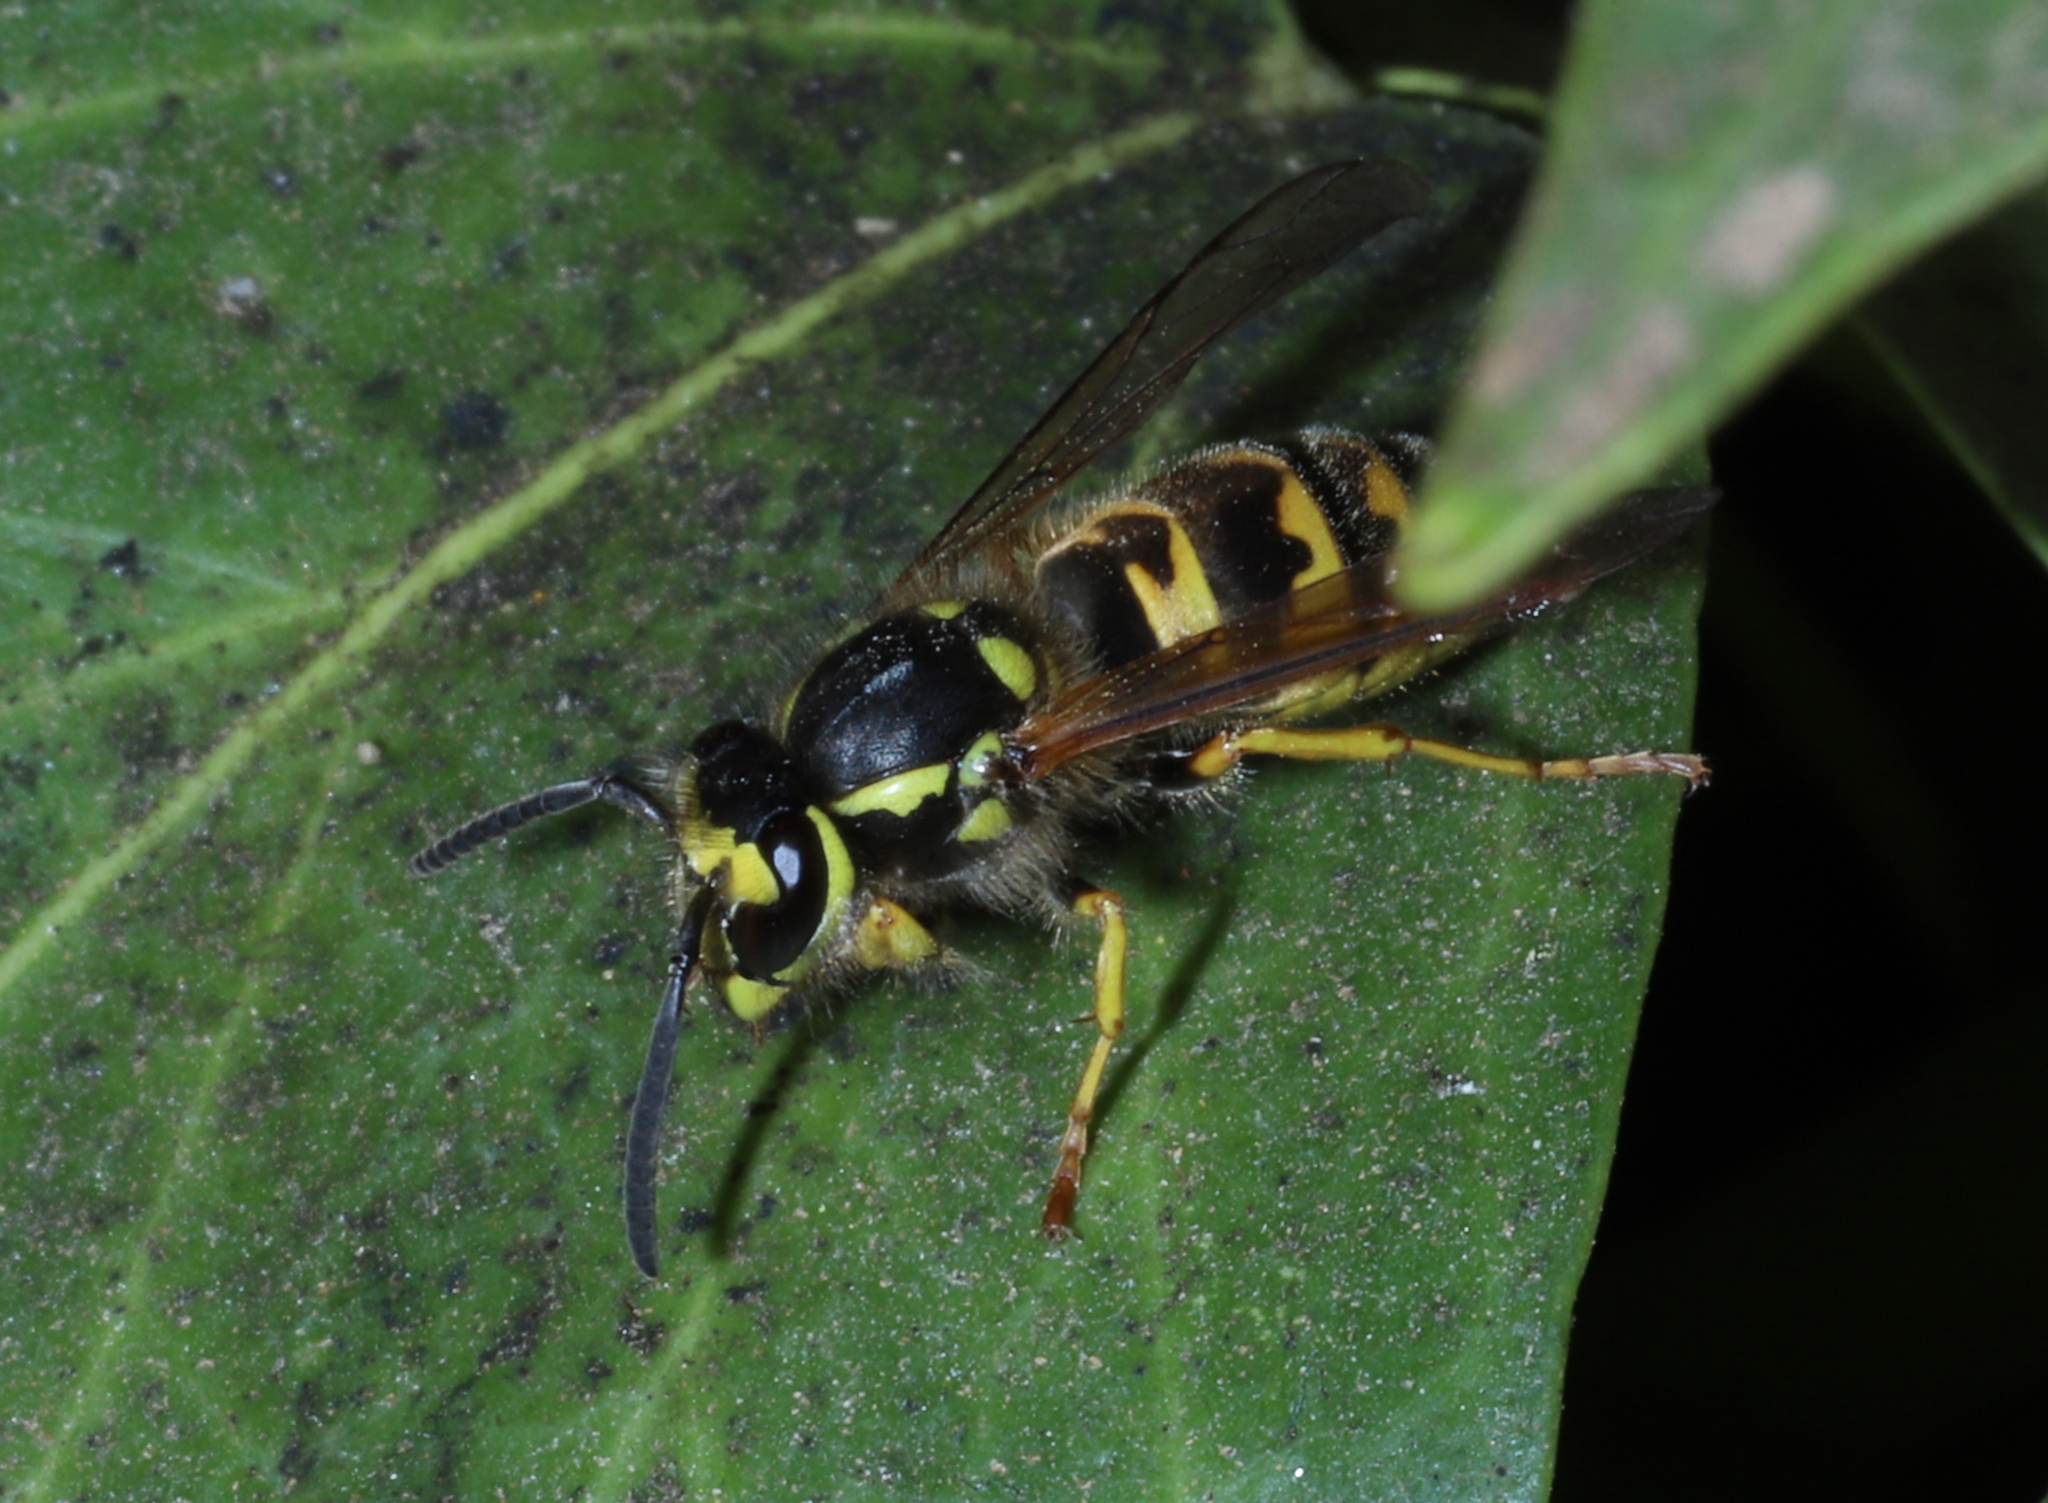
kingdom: Animalia
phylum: Arthropoda
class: Insecta
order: Hymenoptera
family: Vespidae
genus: Vespula
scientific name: Vespula germanica
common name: German wasp
